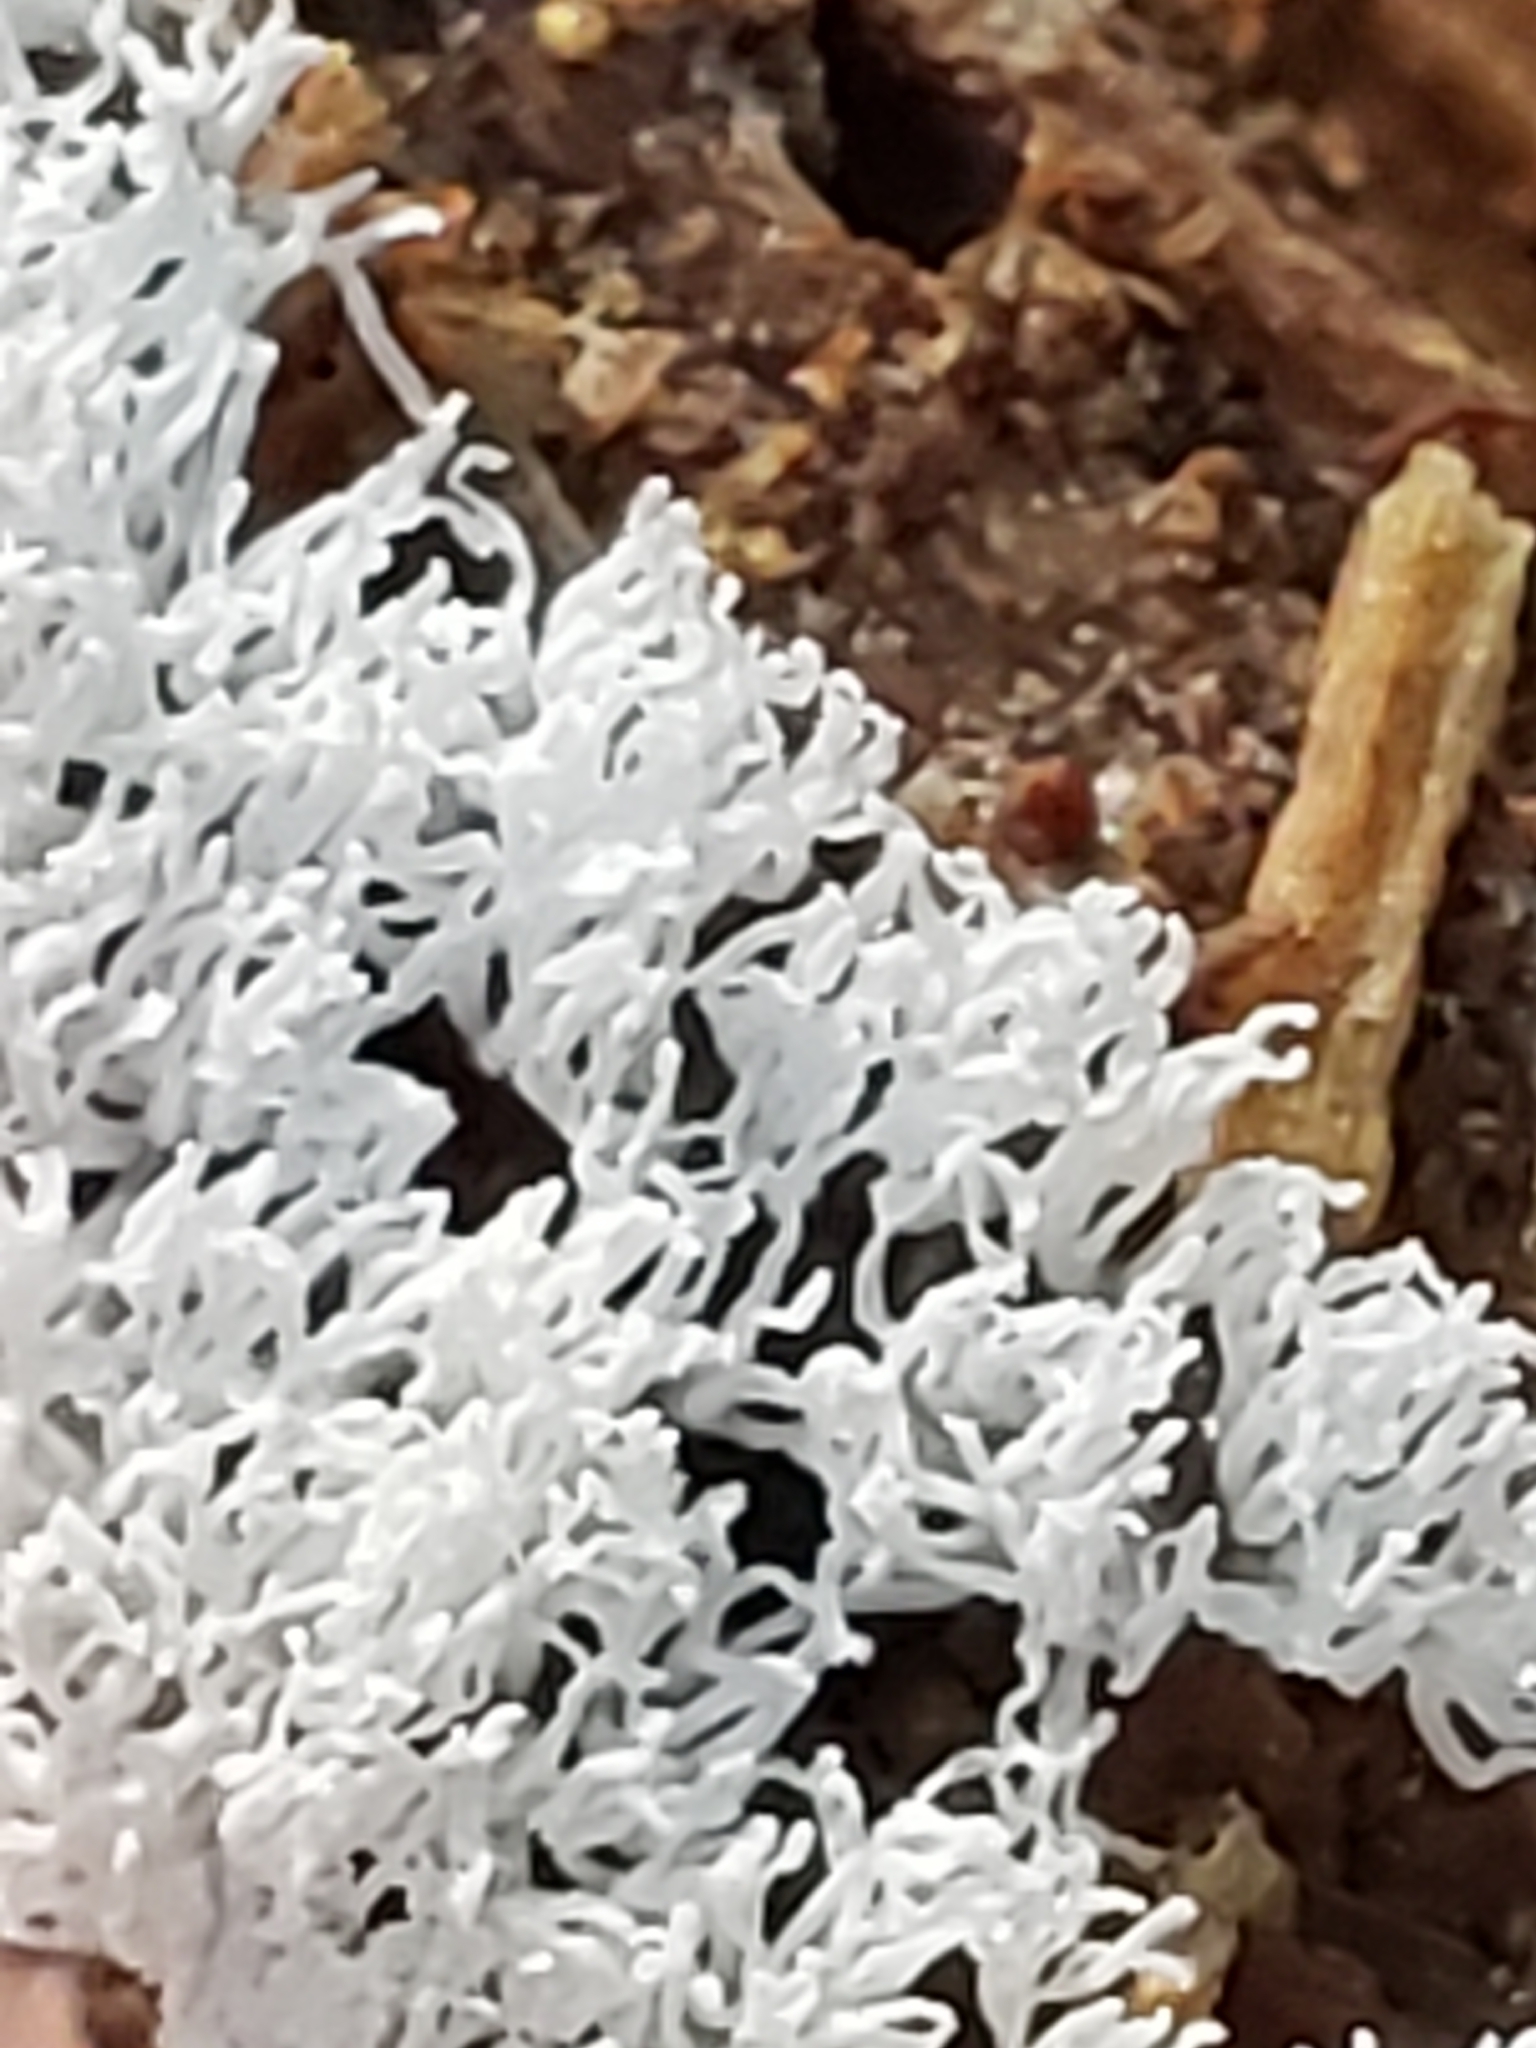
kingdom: Protozoa
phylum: Mycetozoa
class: Protosteliomycetes
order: Ceratiomyxales
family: Ceratiomyxaceae
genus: Ceratiomyxa
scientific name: Ceratiomyxa fruticulosa
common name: Honeycomb coral slime mold
